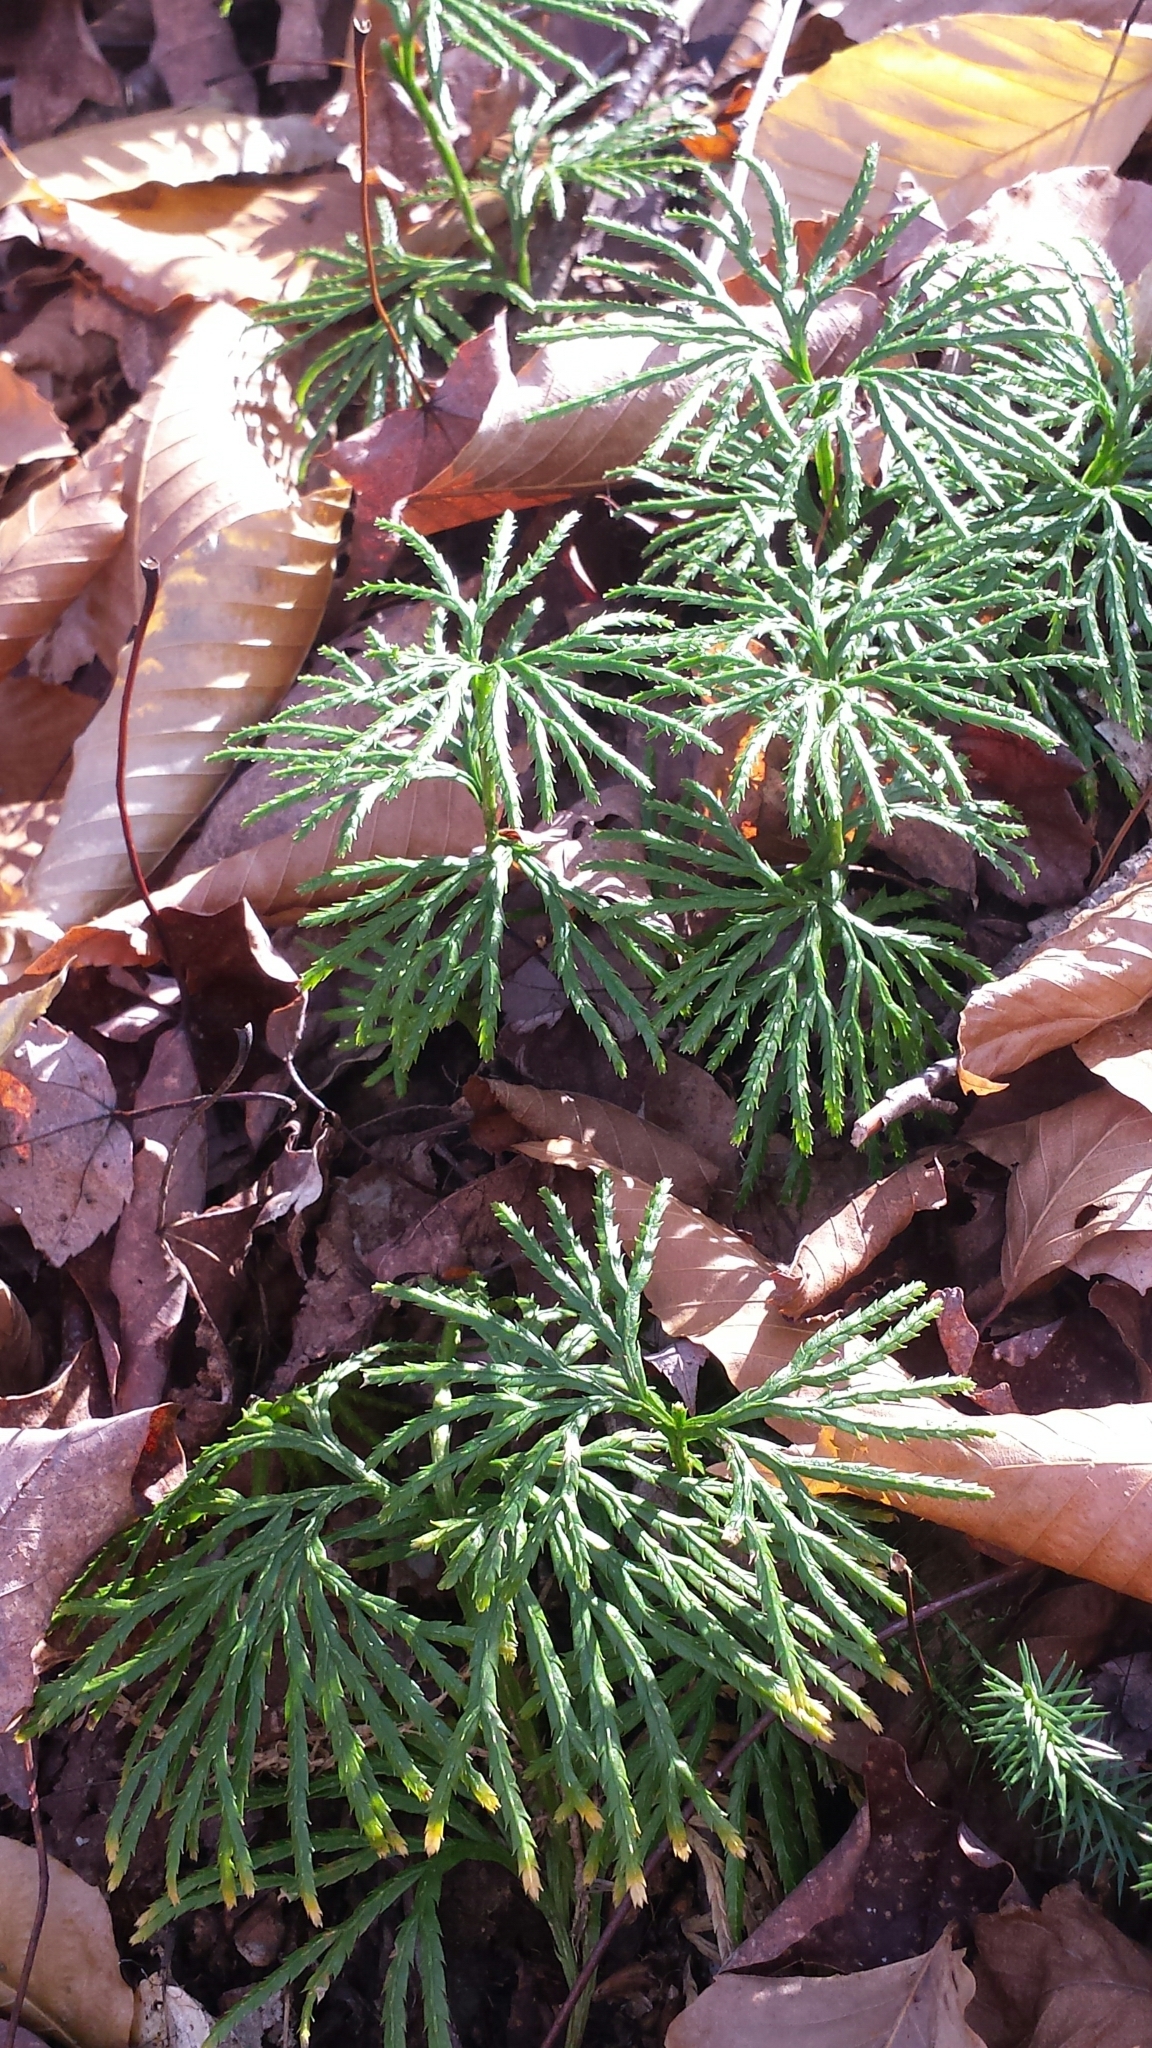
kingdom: Plantae
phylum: Tracheophyta
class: Lycopodiopsida
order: Lycopodiales
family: Lycopodiaceae
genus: Diphasiastrum
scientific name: Diphasiastrum digitatum
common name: Southern running-pine
